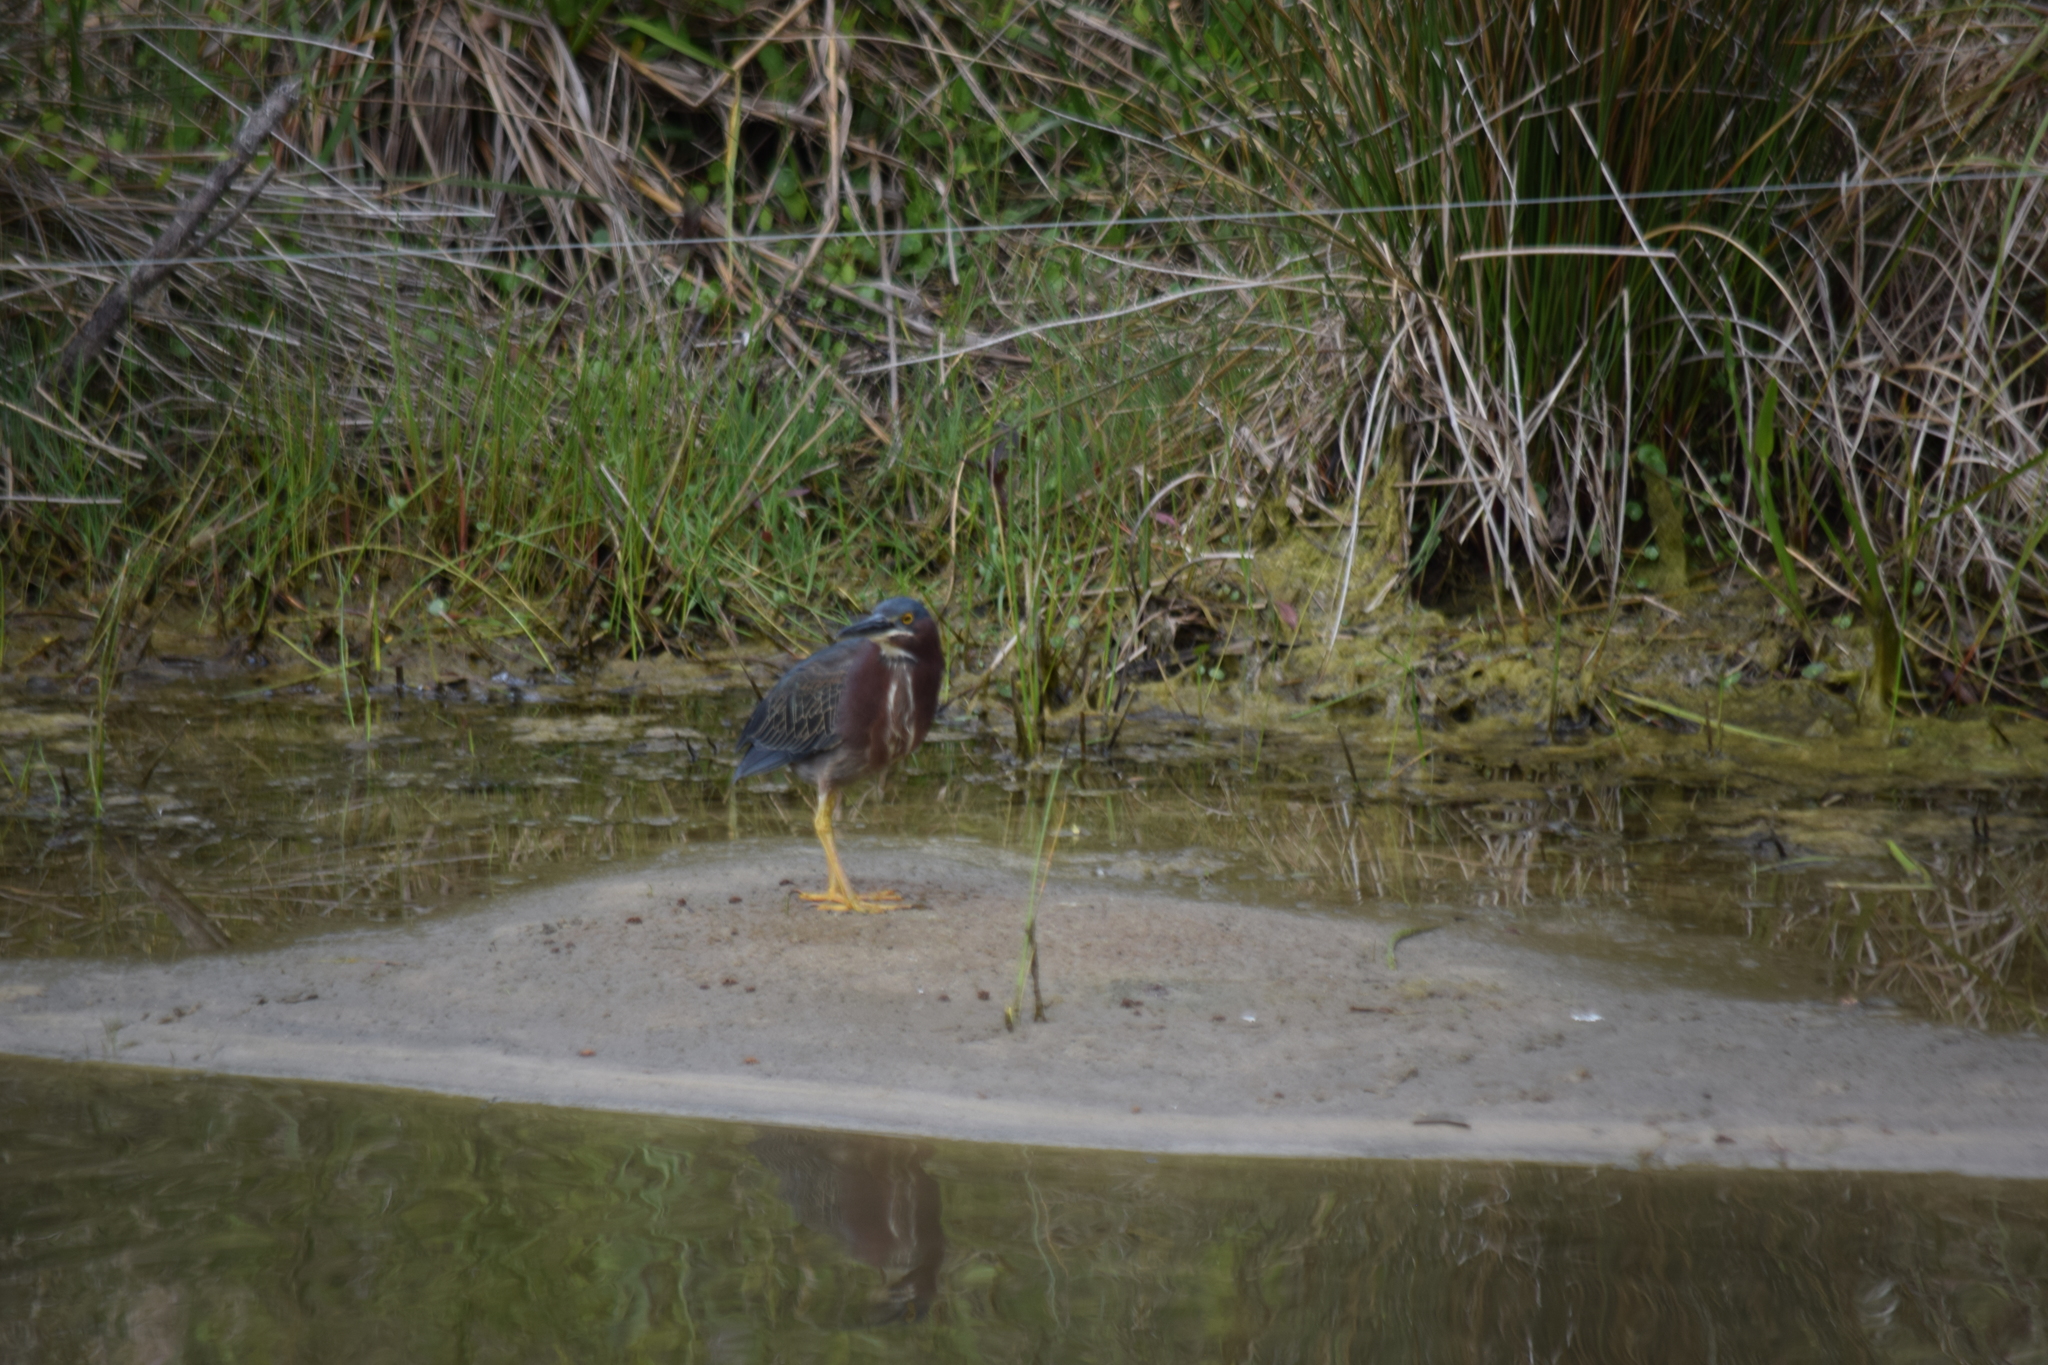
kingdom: Animalia
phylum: Chordata
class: Aves
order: Pelecaniformes
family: Ardeidae
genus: Butorides
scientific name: Butorides virescens
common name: Green heron
